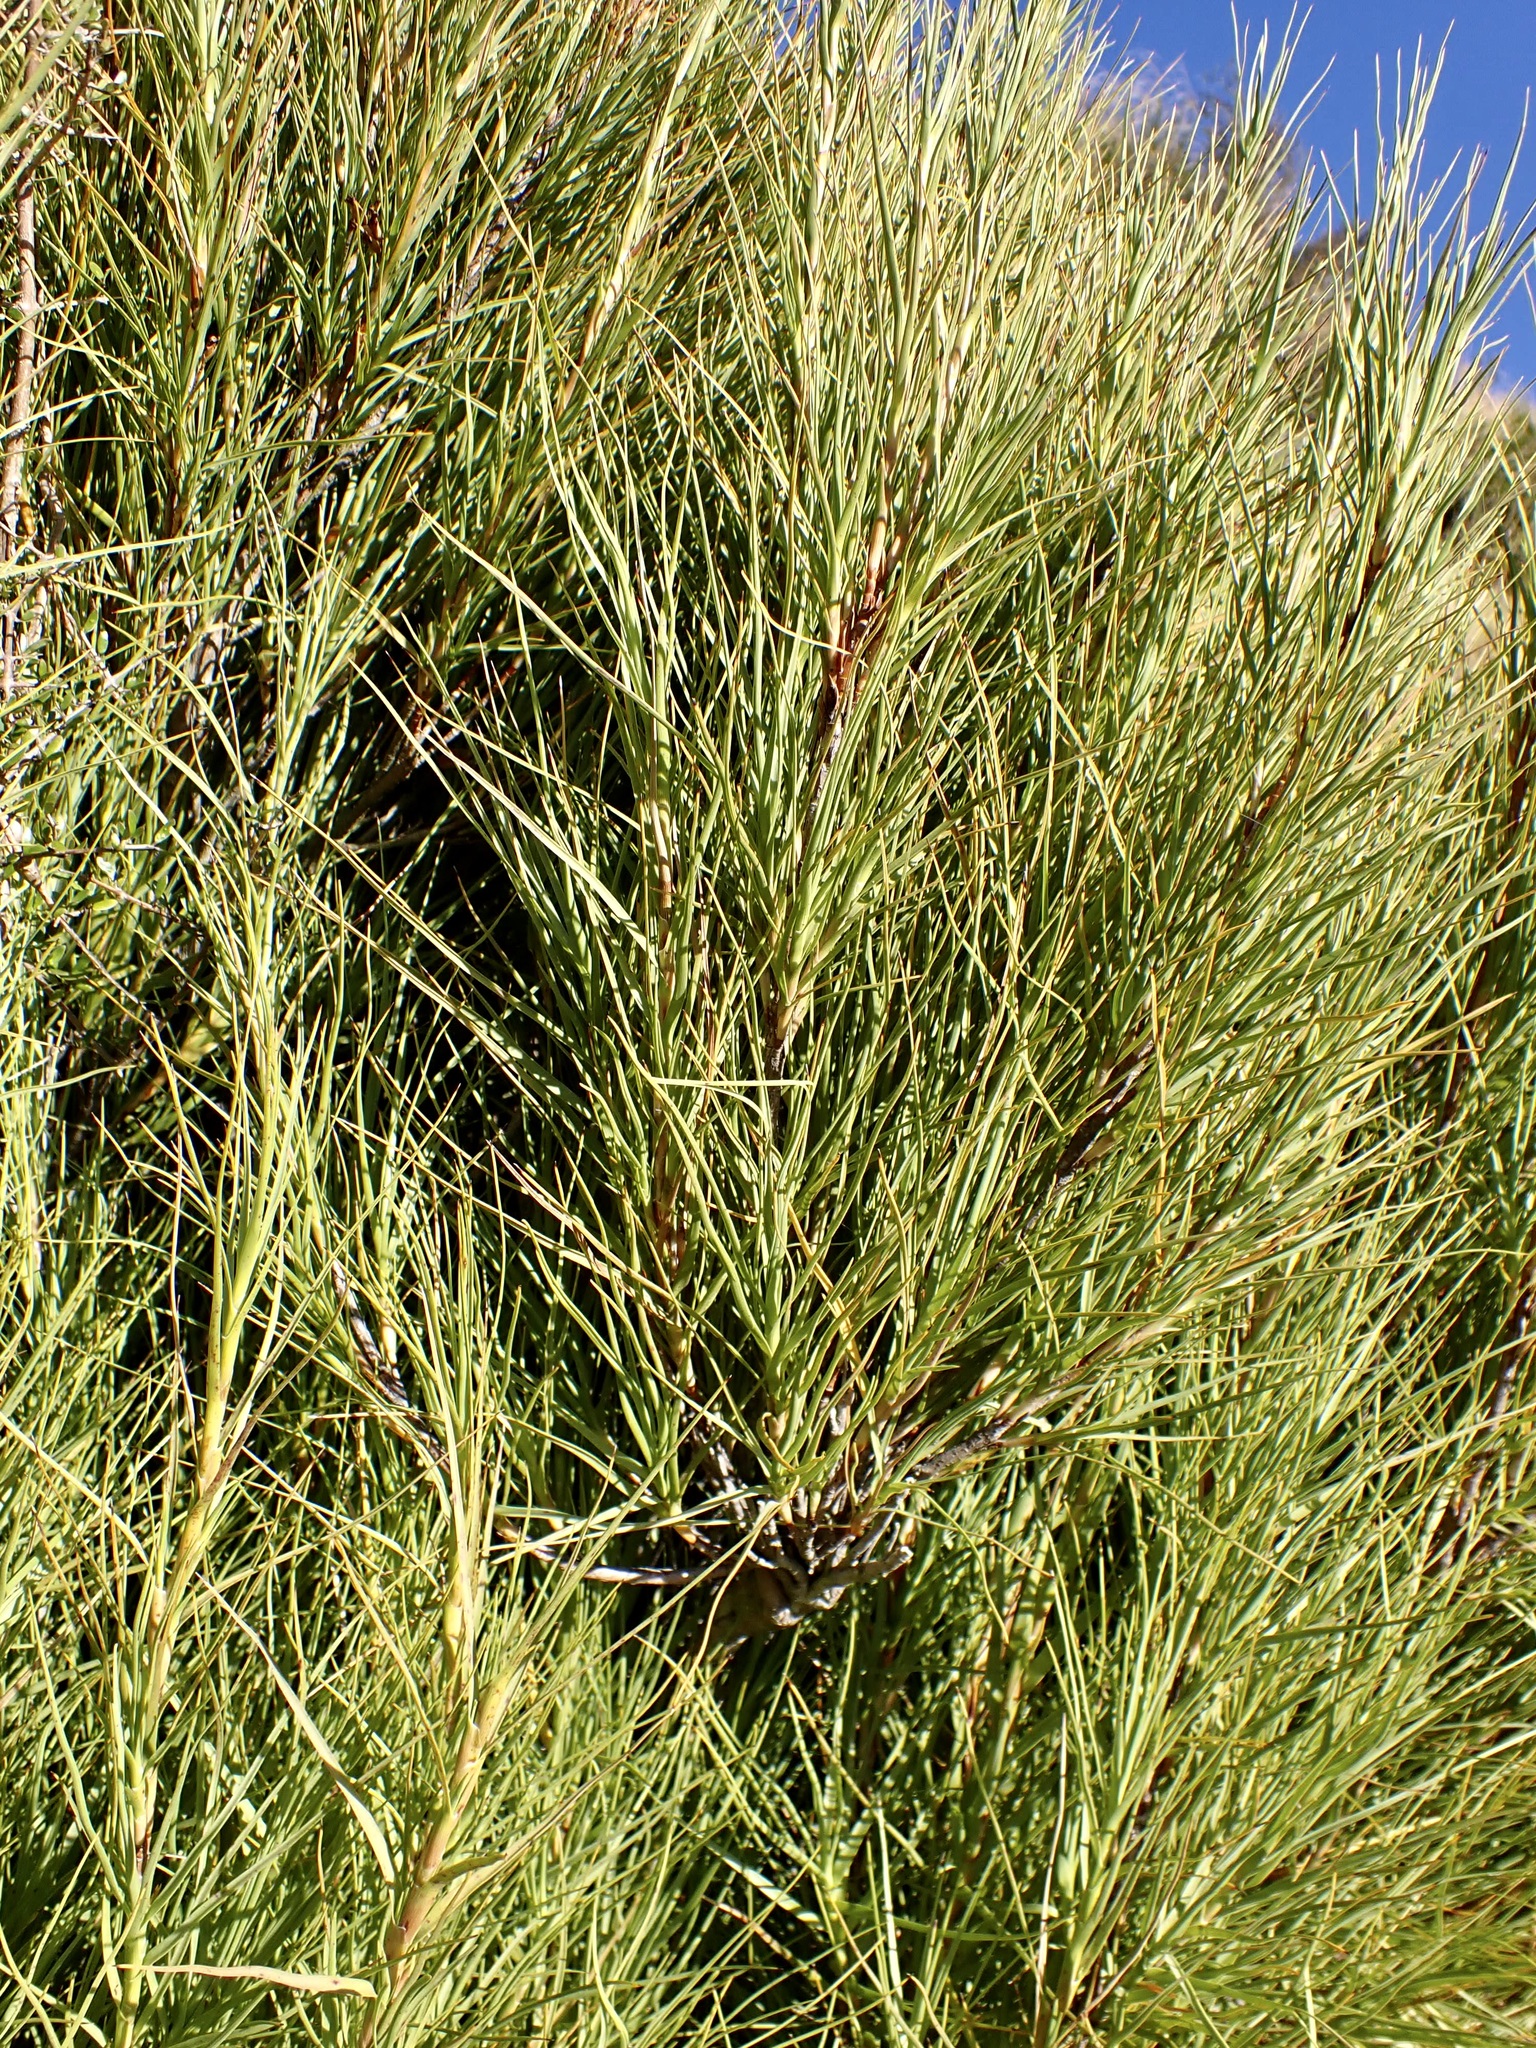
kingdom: Plantae
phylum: Tracheophyta
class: Magnoliopsida
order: Ericales
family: Ericaceae
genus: Dracophyllum
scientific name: Dracophyllum longifolium
